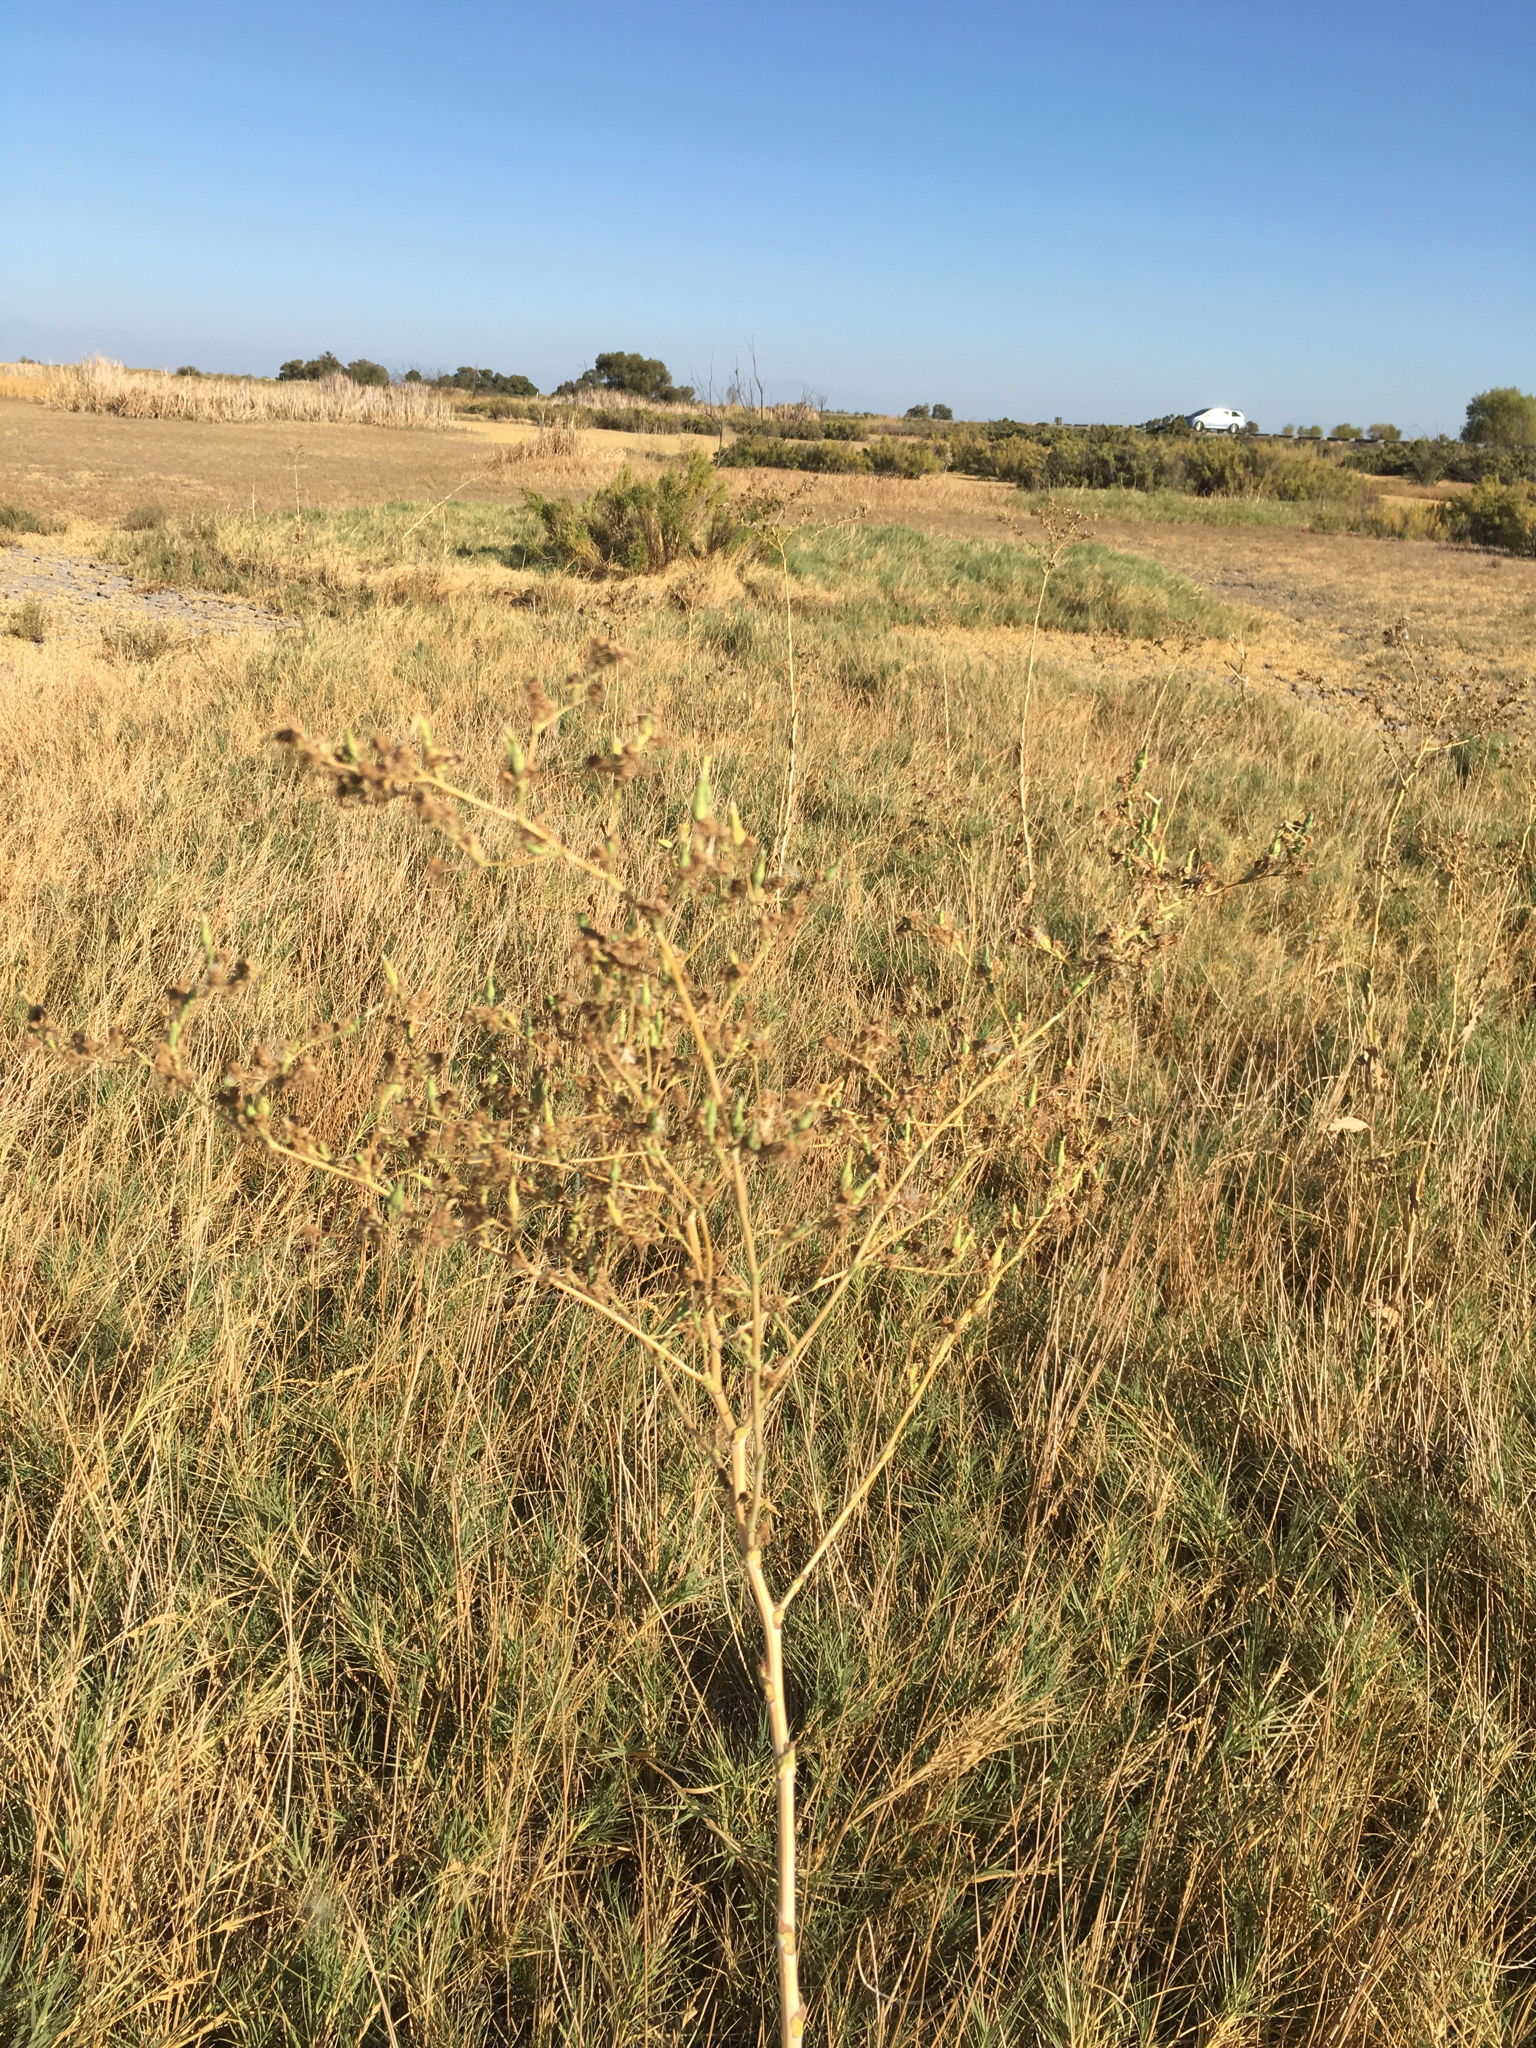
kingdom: Plantae
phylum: Tracheophyta
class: Magnoliopsida
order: Asterales
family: Asteraceae
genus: Lactuca
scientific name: Lactuca serriola
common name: Prickly lettuce
